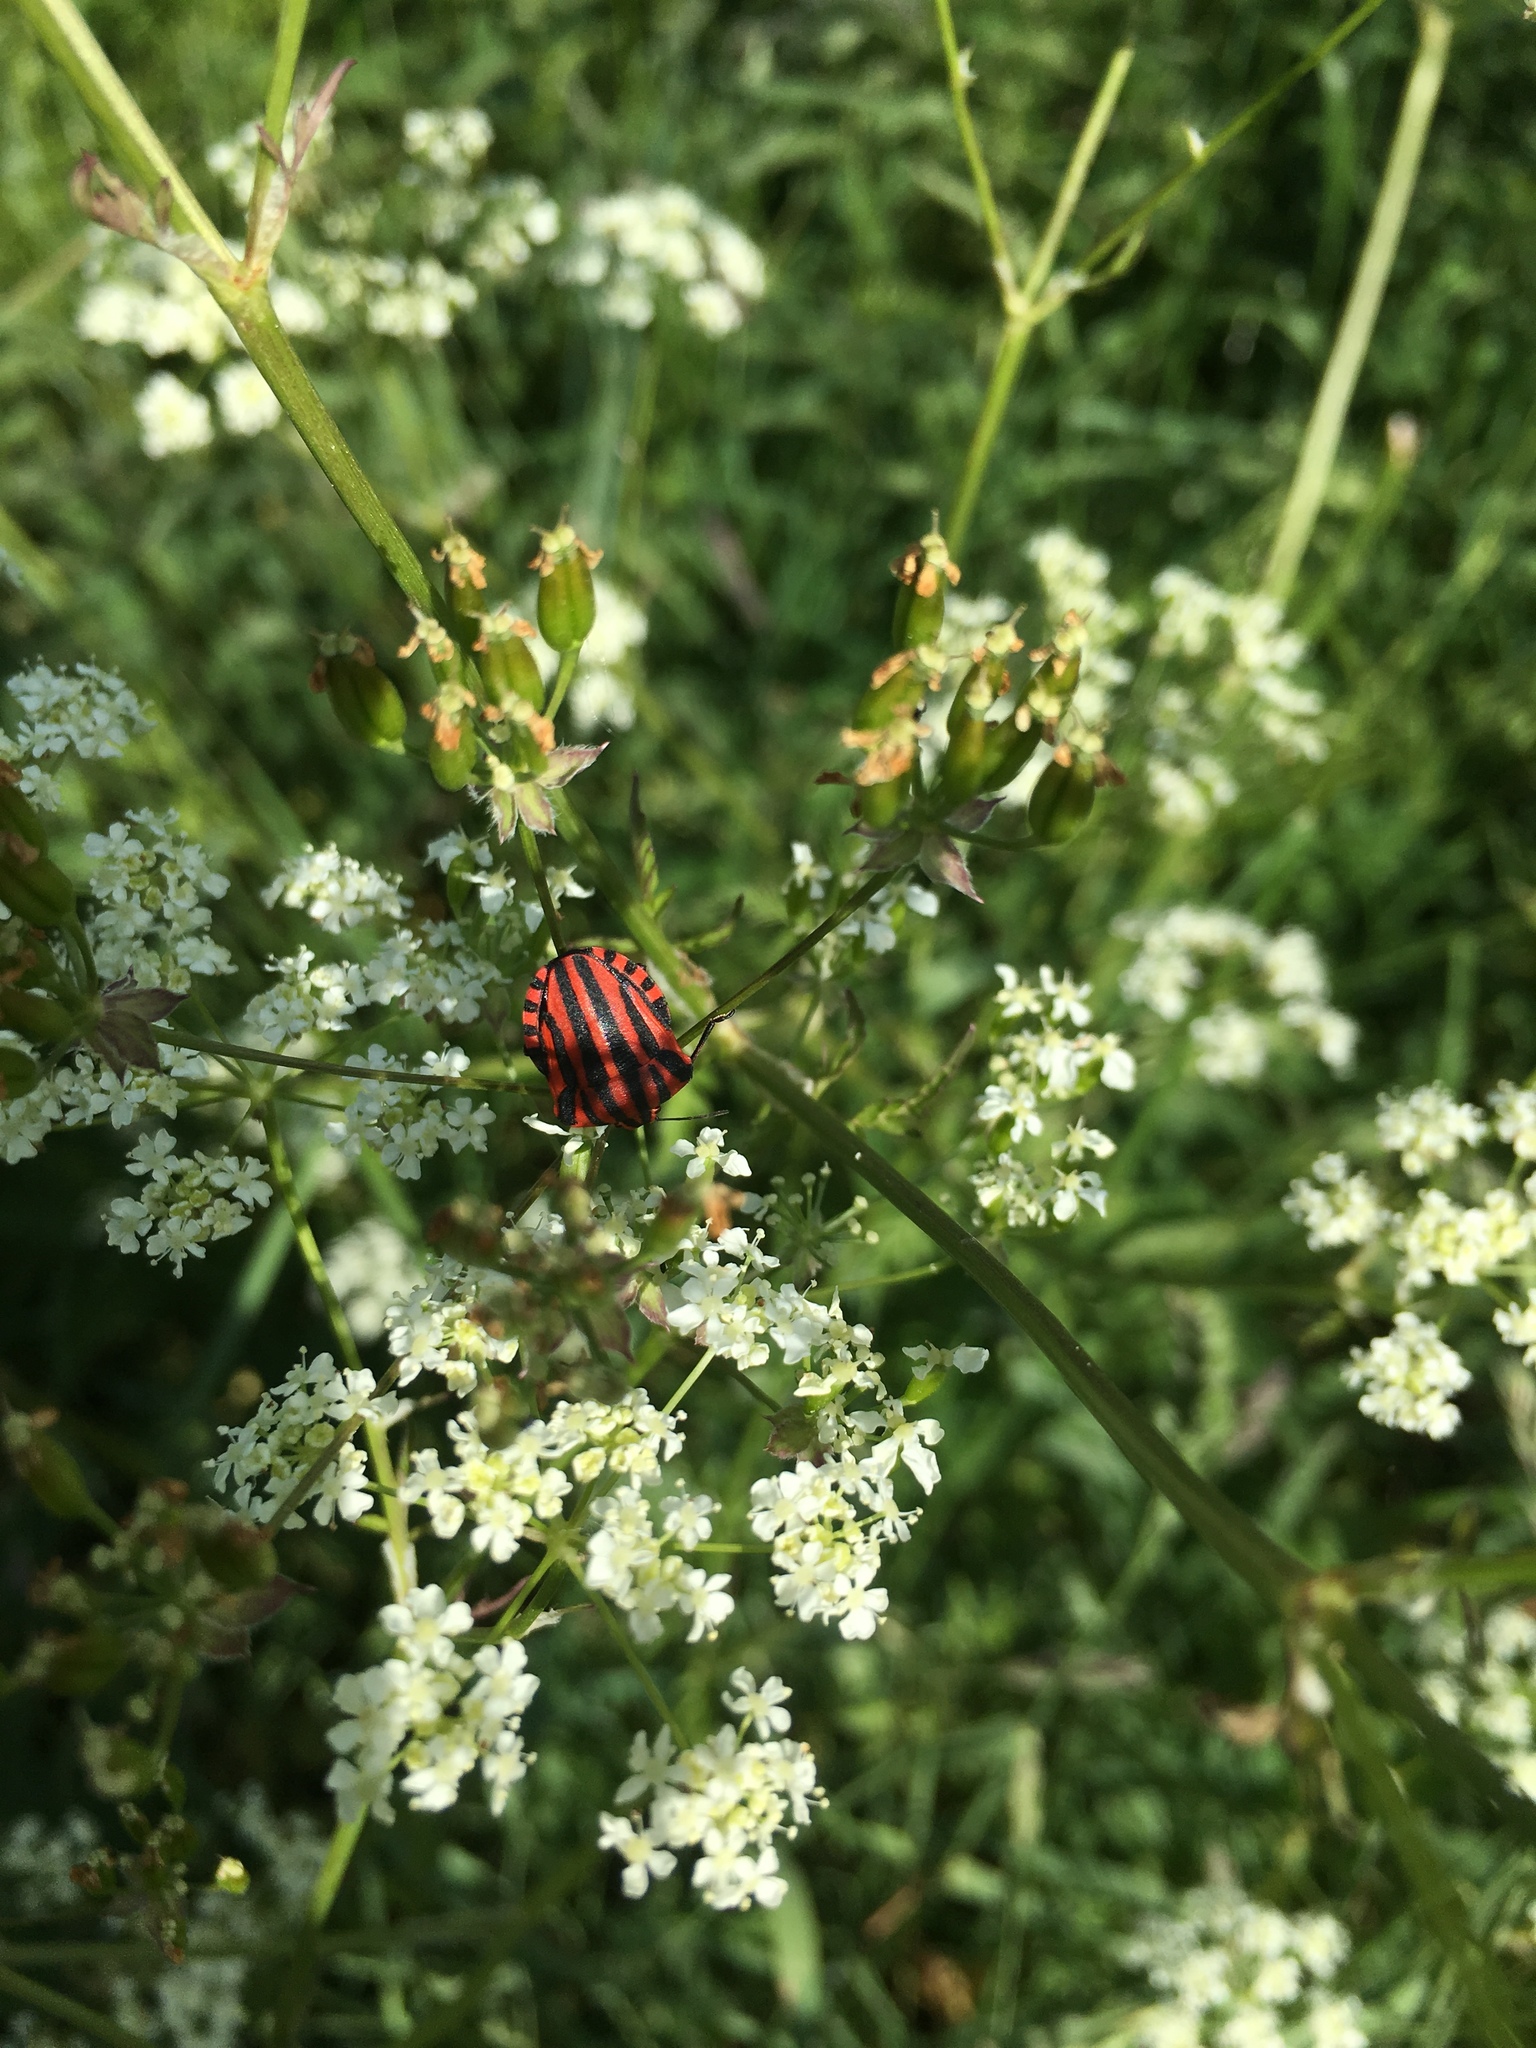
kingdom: Animalia
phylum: Arthropoda
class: Insecta
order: Hemiptera
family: Pentatomidae
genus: Graphosoma
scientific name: Graphosoma italicum
